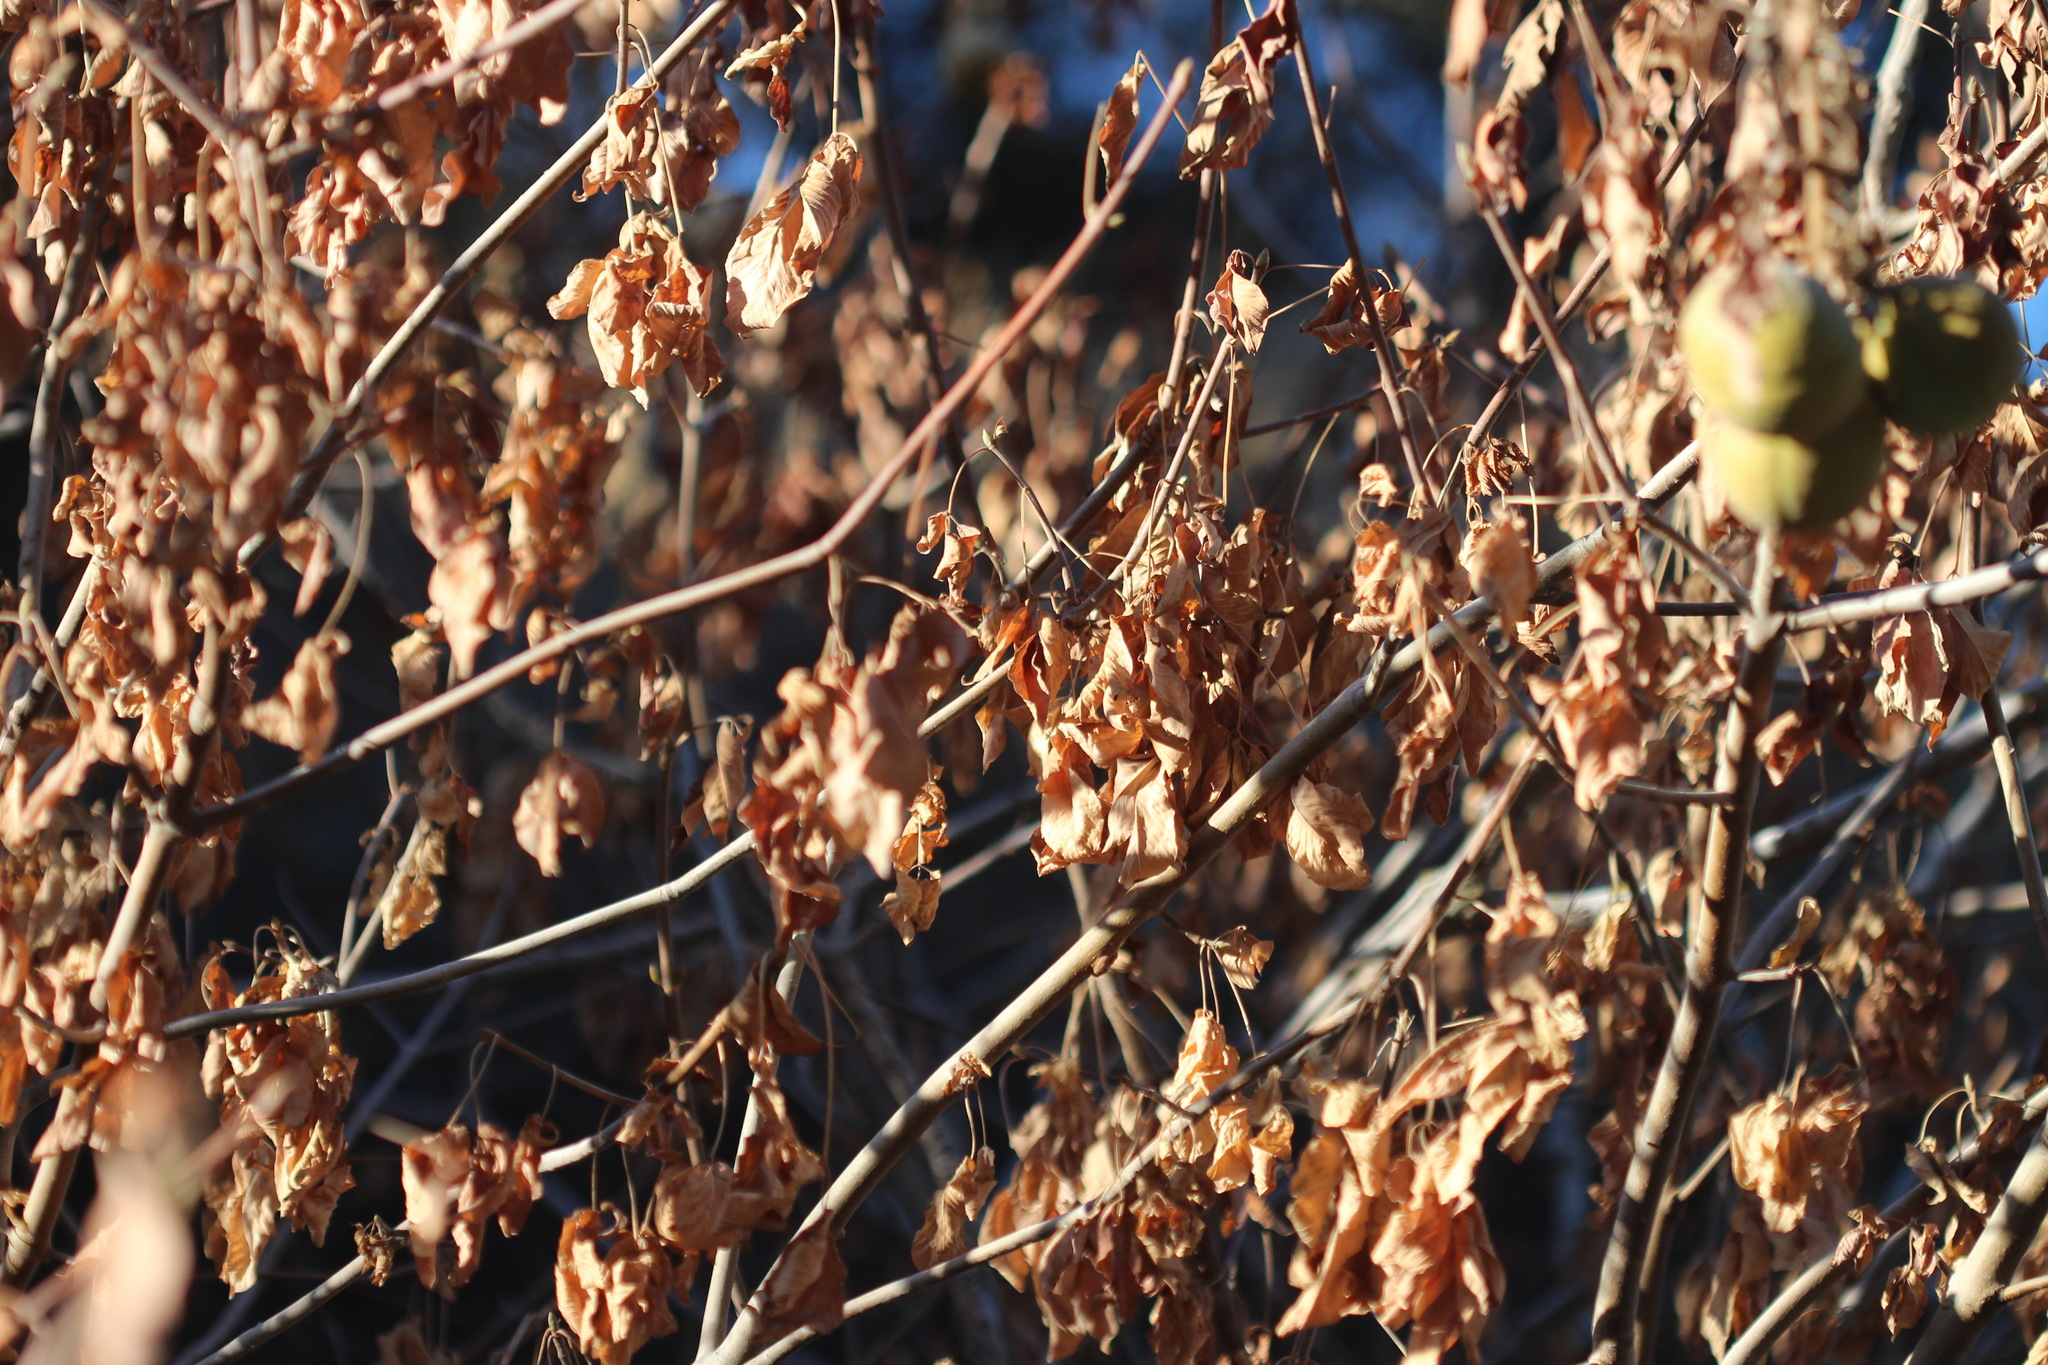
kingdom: Plantae
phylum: Tracheophyta
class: Magnoliopsida
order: Sapindales
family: Sapindaceae
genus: Aesculus
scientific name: Aesculus californica
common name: California buckeye
